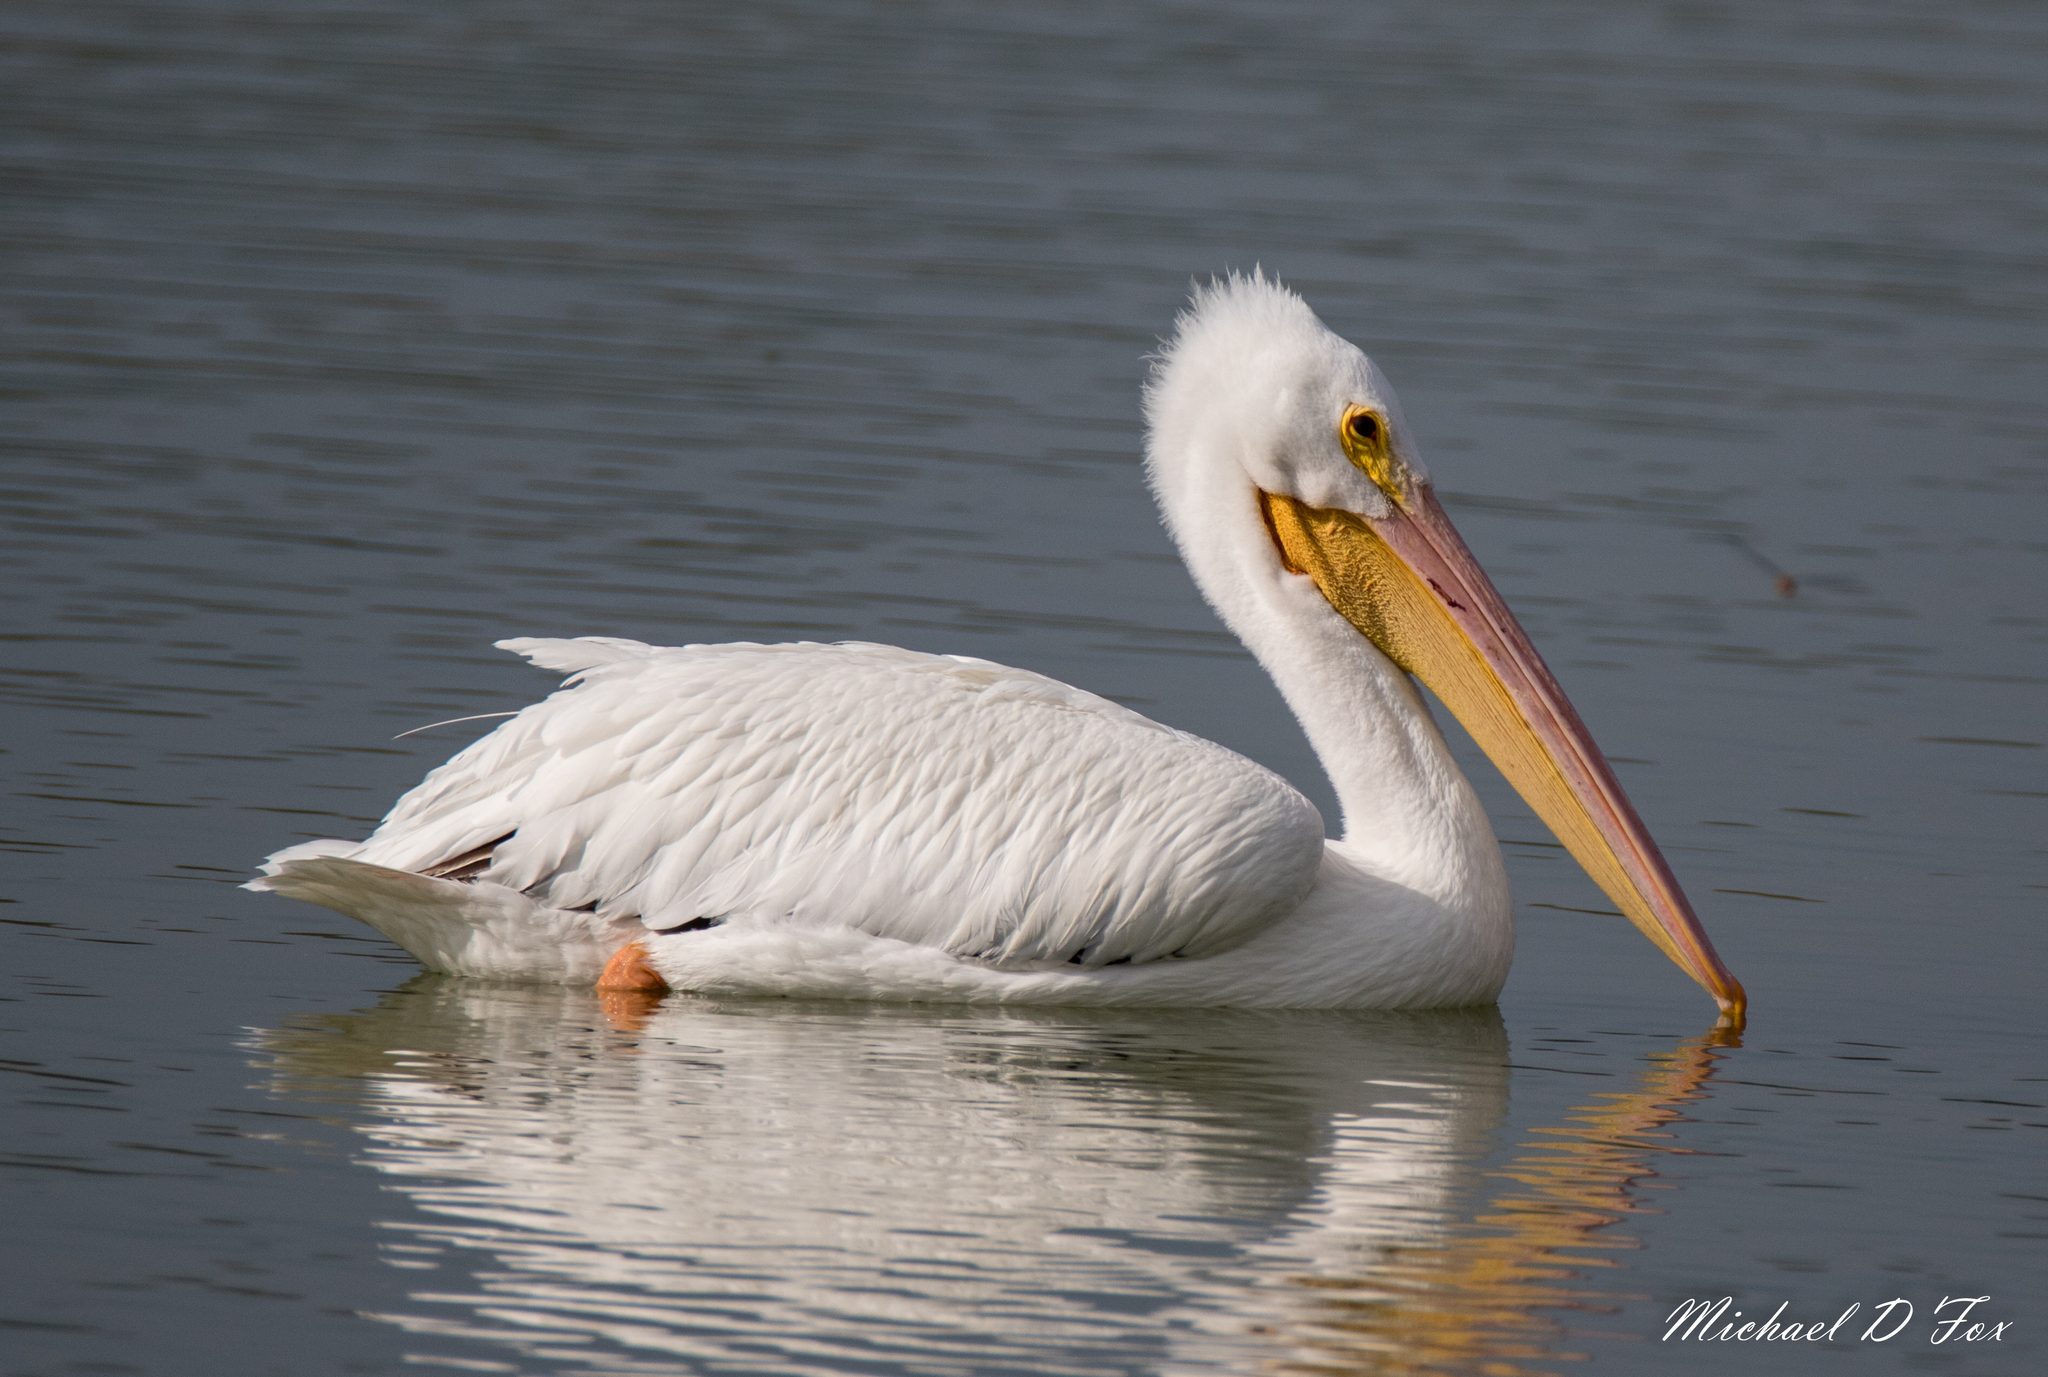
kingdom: Animalia
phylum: Chordata
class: Aves
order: Pelecaniformes
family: Pelecanidae
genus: Pelecanus
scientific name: Pelecanus erythrorhynchos
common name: American white pelican
